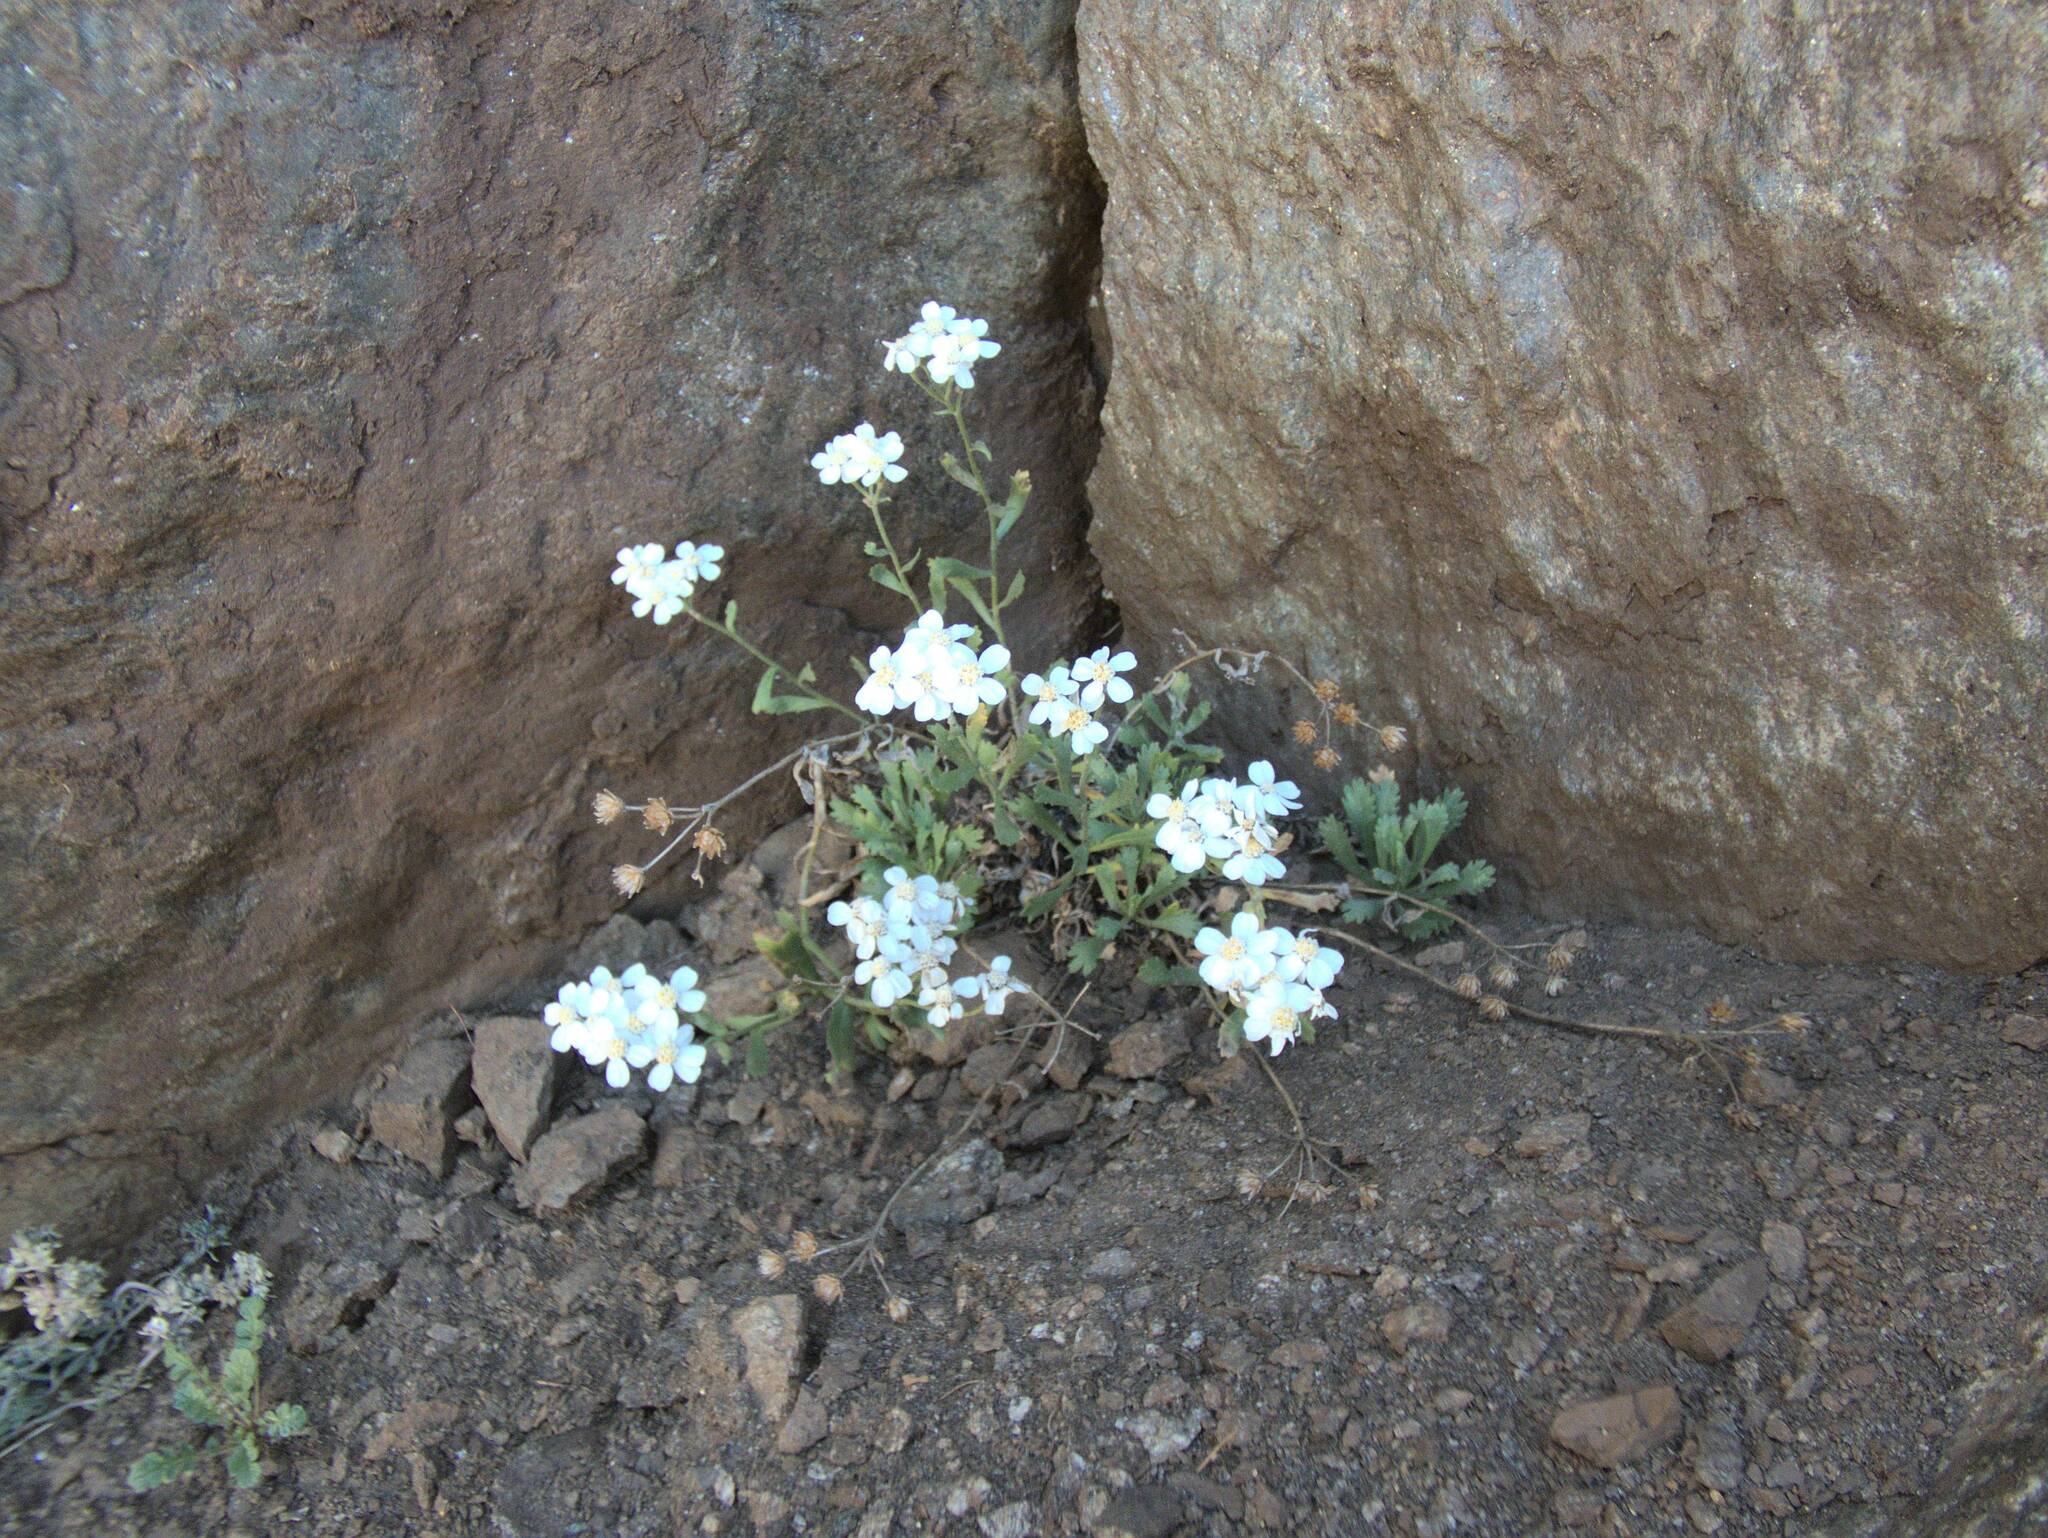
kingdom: Plantae
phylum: Tracheophyta
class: Magnoliopsida
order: Asterales
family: Asteraceae
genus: Achillea
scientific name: Achillea erba-rotta
